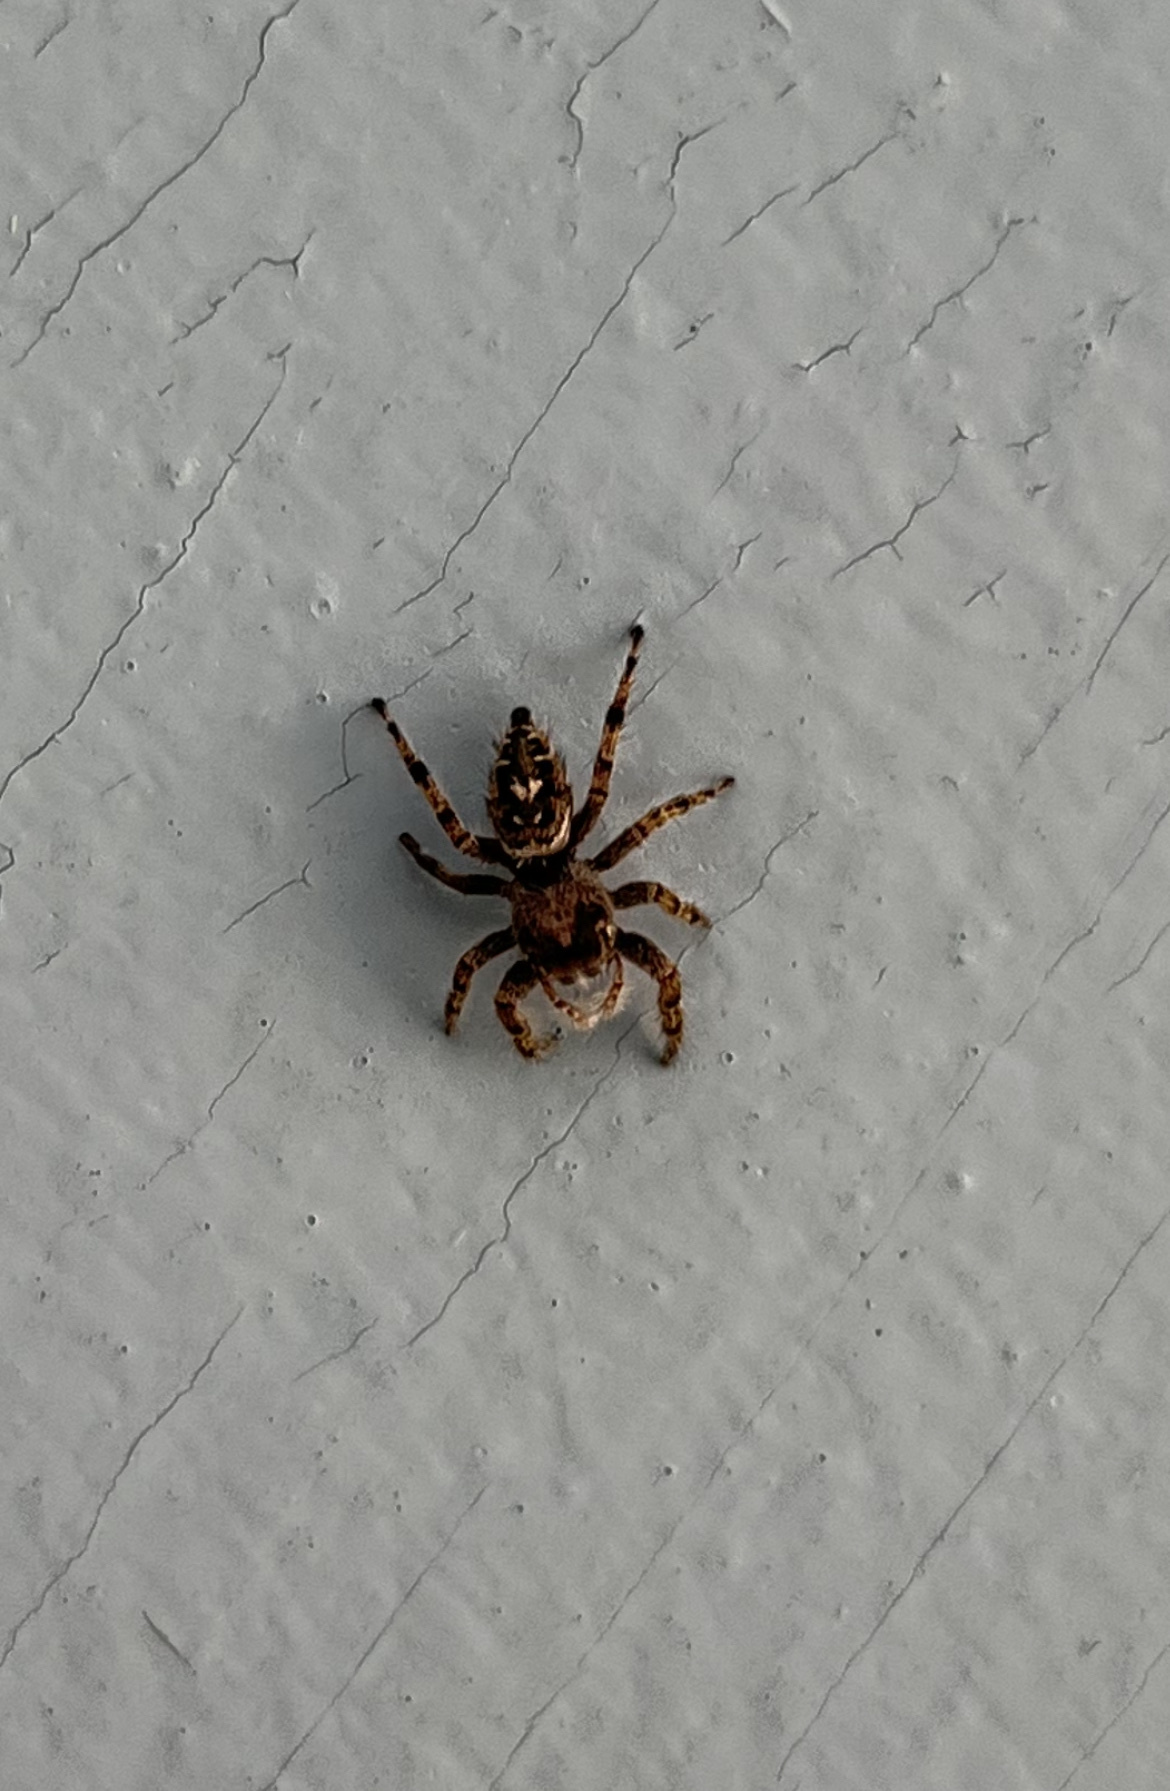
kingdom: Animalia
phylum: Arthropoda
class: Arachnida
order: Araneae
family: Salticidae
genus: Phidippus
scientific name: Phidippus putnami
